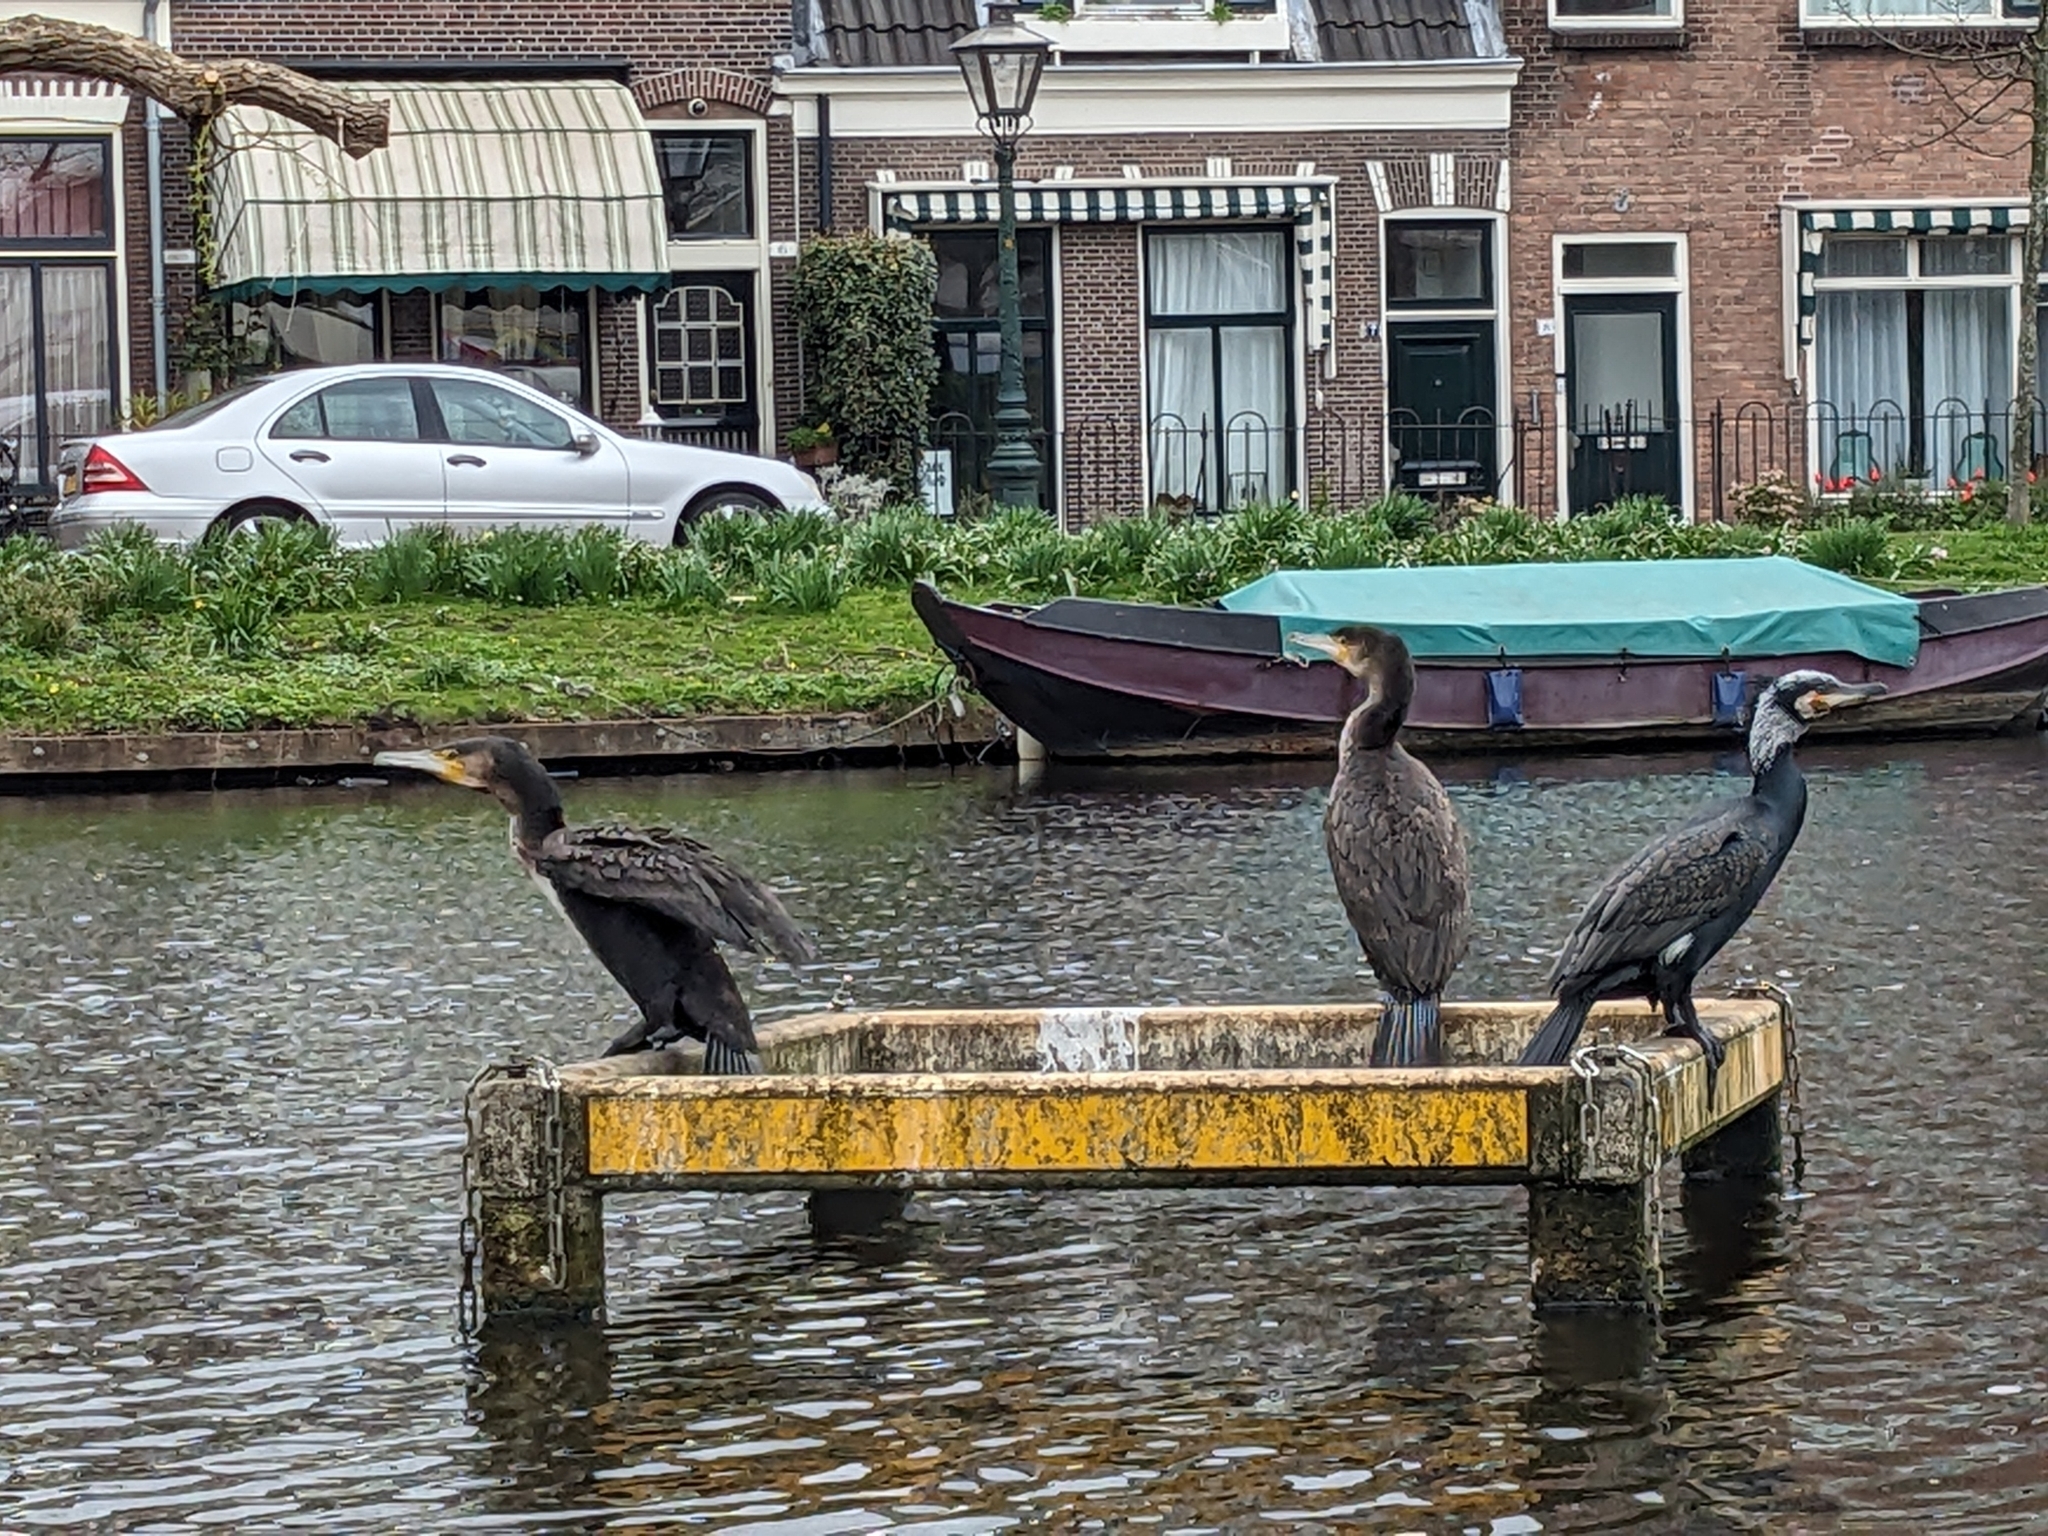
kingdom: Animalia
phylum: Chordata
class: Aves
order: Suliformes
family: Phalacrocoracidae
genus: Phalacrocorax
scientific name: Phalacrocorax carbo
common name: Great cormorant
